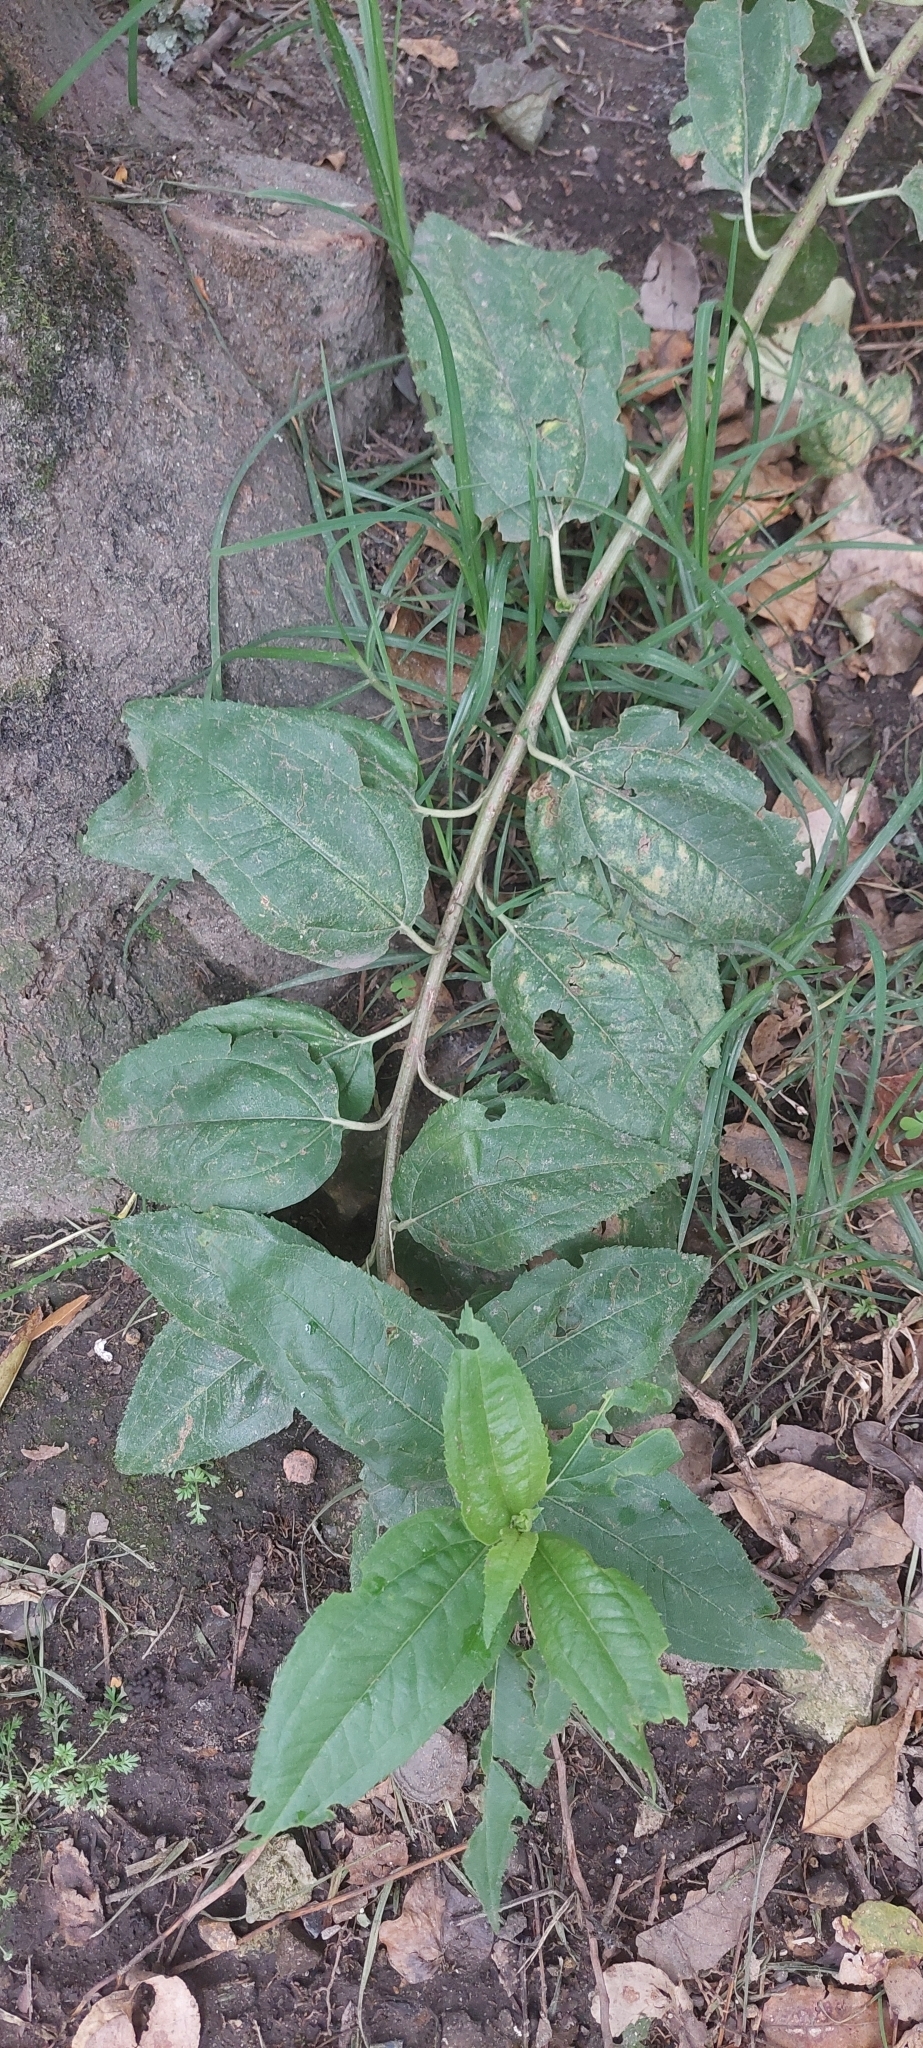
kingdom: Plantae
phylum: Tracheophyta
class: Magnoliopsida
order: Asterales
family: Asteraceae
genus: Baccharis
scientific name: Baccharis latifolia
